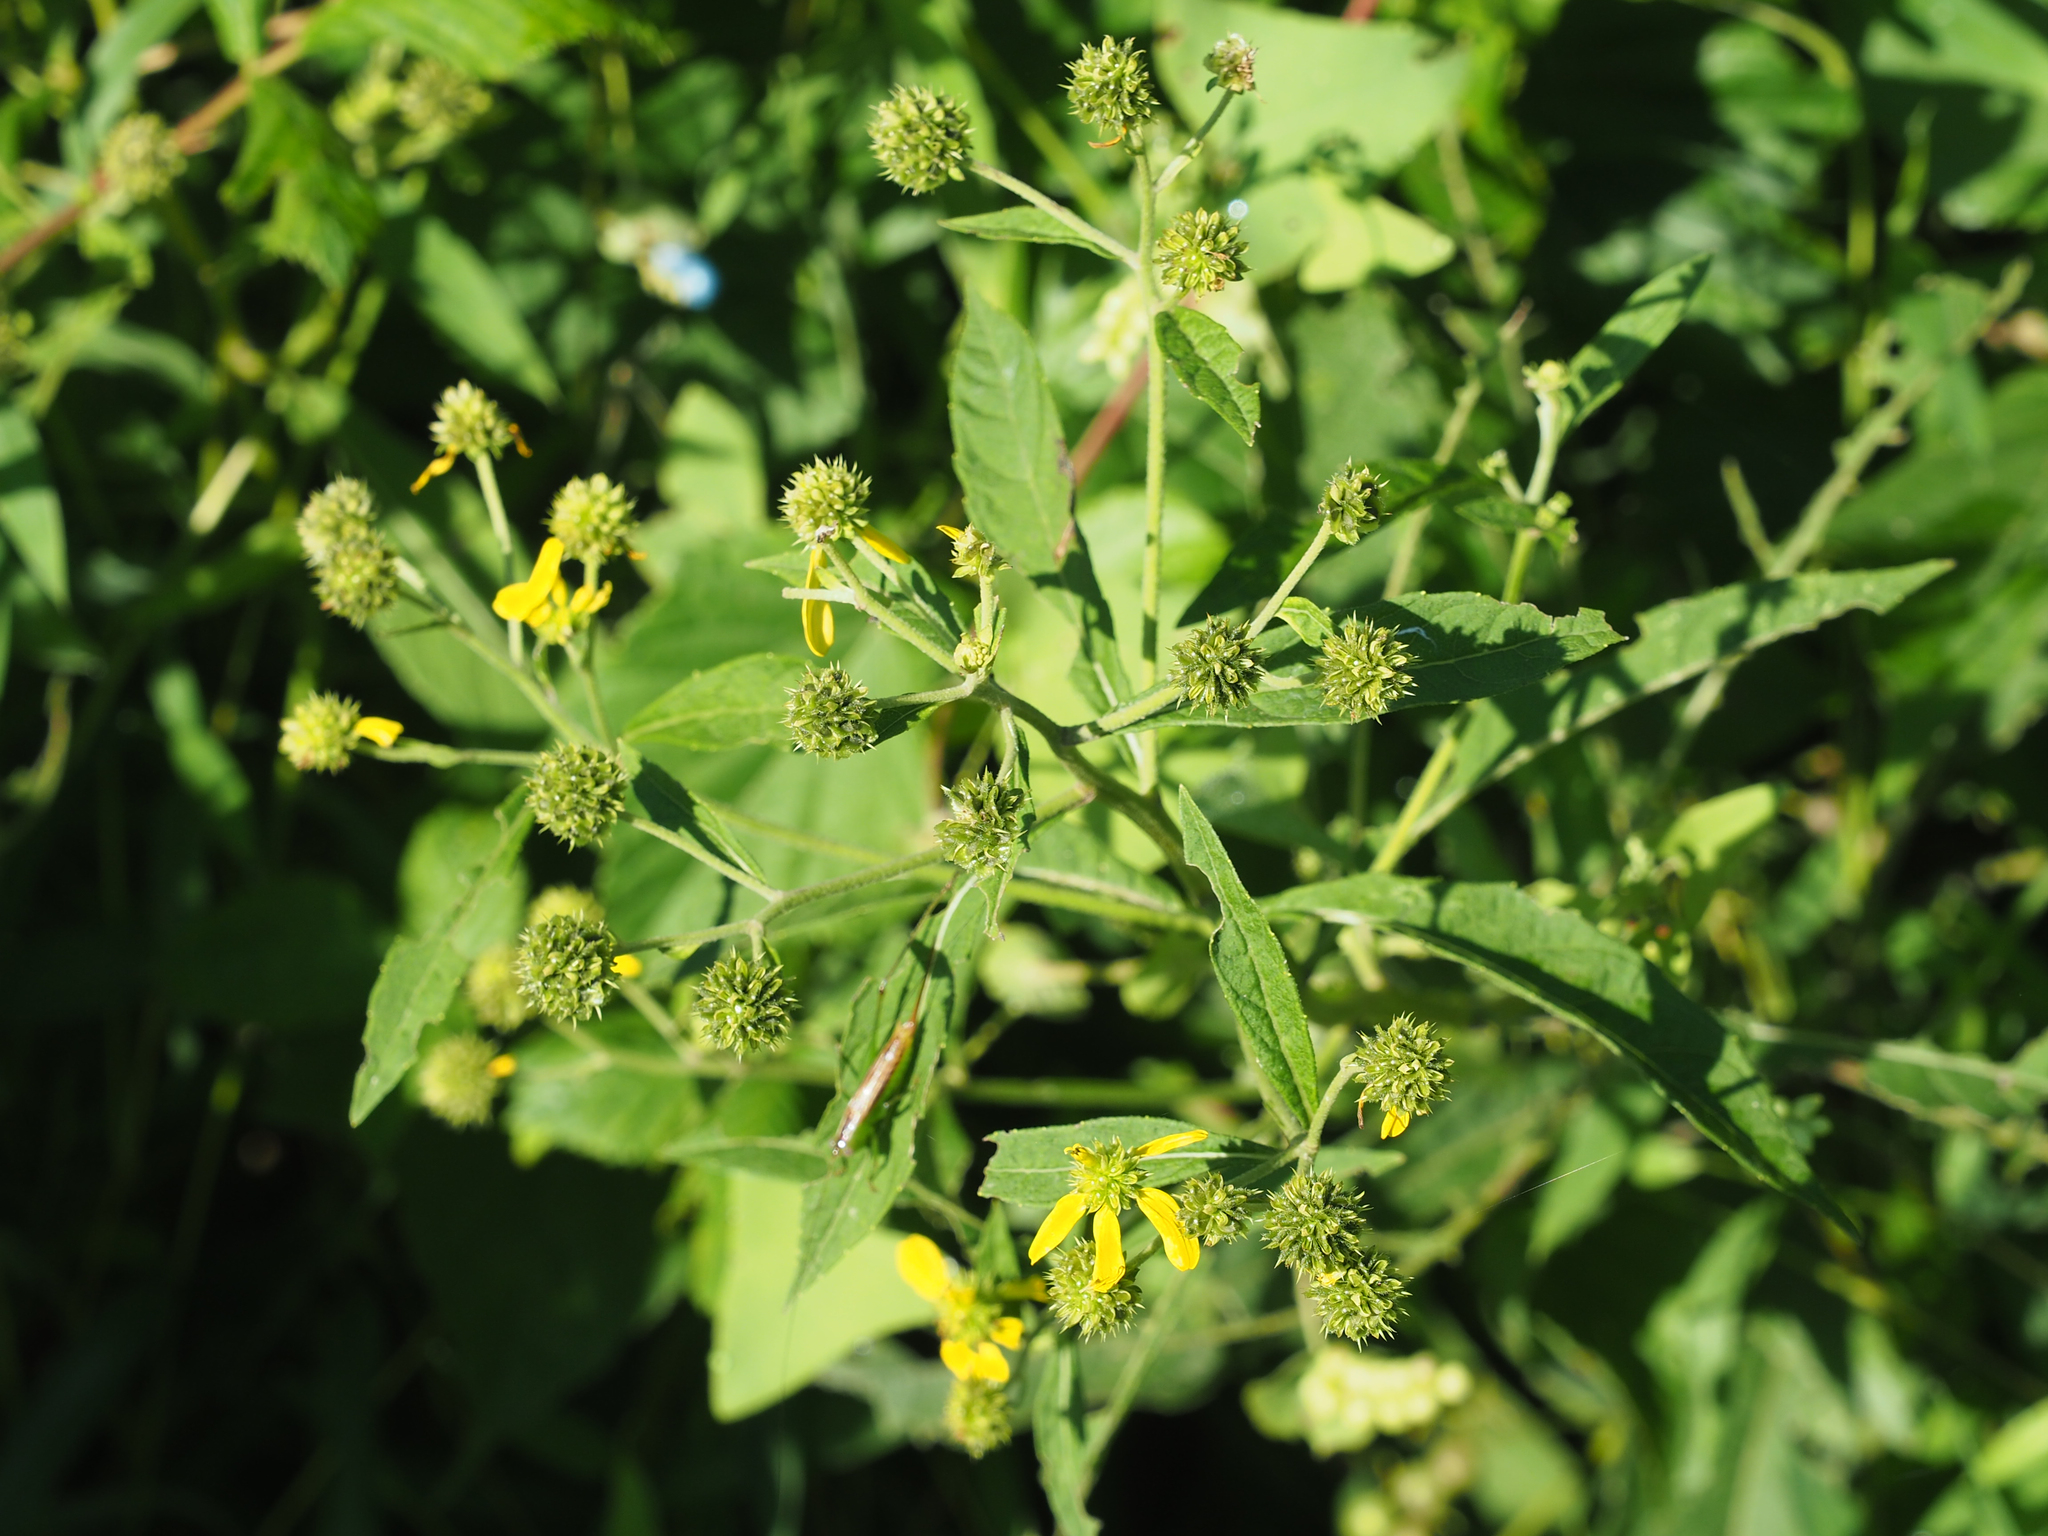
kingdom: Plantae
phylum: Tracheophyta
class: Magnoliopsida
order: Asterales
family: Asteraceae
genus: Verbesina
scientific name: Verbesina alternifolia
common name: Wingstem
